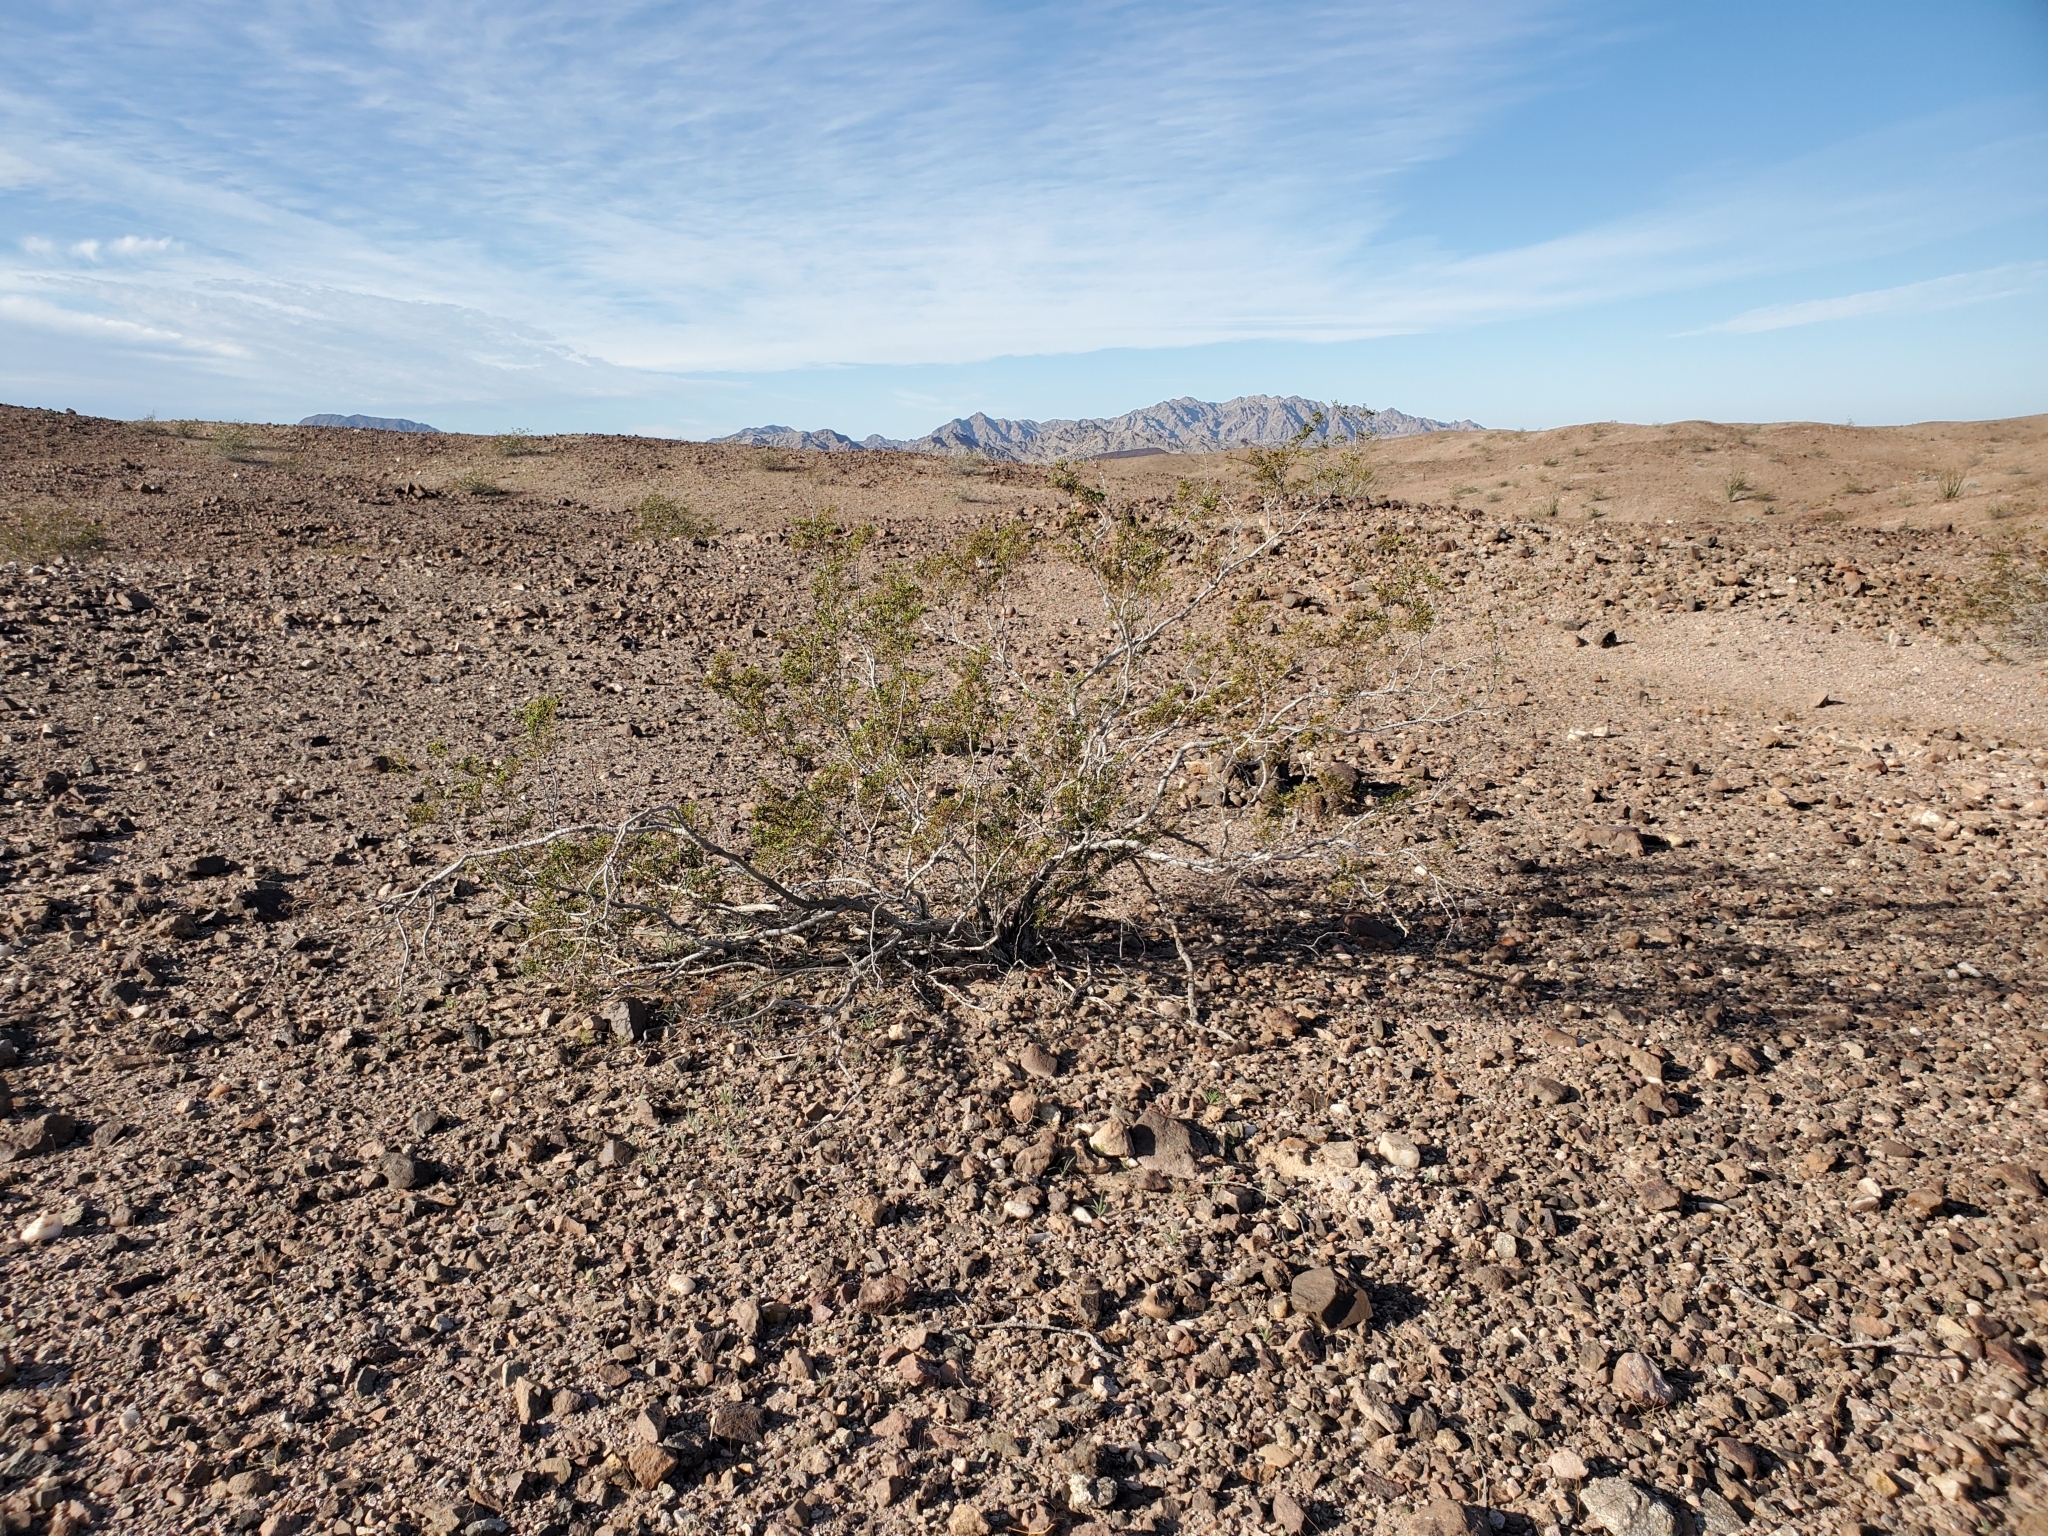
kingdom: Plantae
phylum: Tracheophyta
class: Magnoliopsida
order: Zygophyllales
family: Zygophyllaceae
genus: Larrea
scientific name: Larrea tridentata
